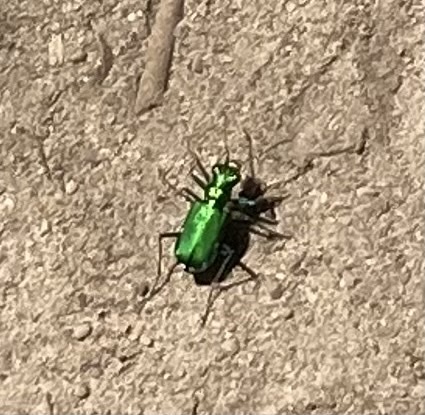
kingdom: Animalia
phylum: Arthropoda
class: Insecta
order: Coleoptera
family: Carabidae
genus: Cicindela
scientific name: Cicindela sexguttata
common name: Six-spotted tiger beetle
